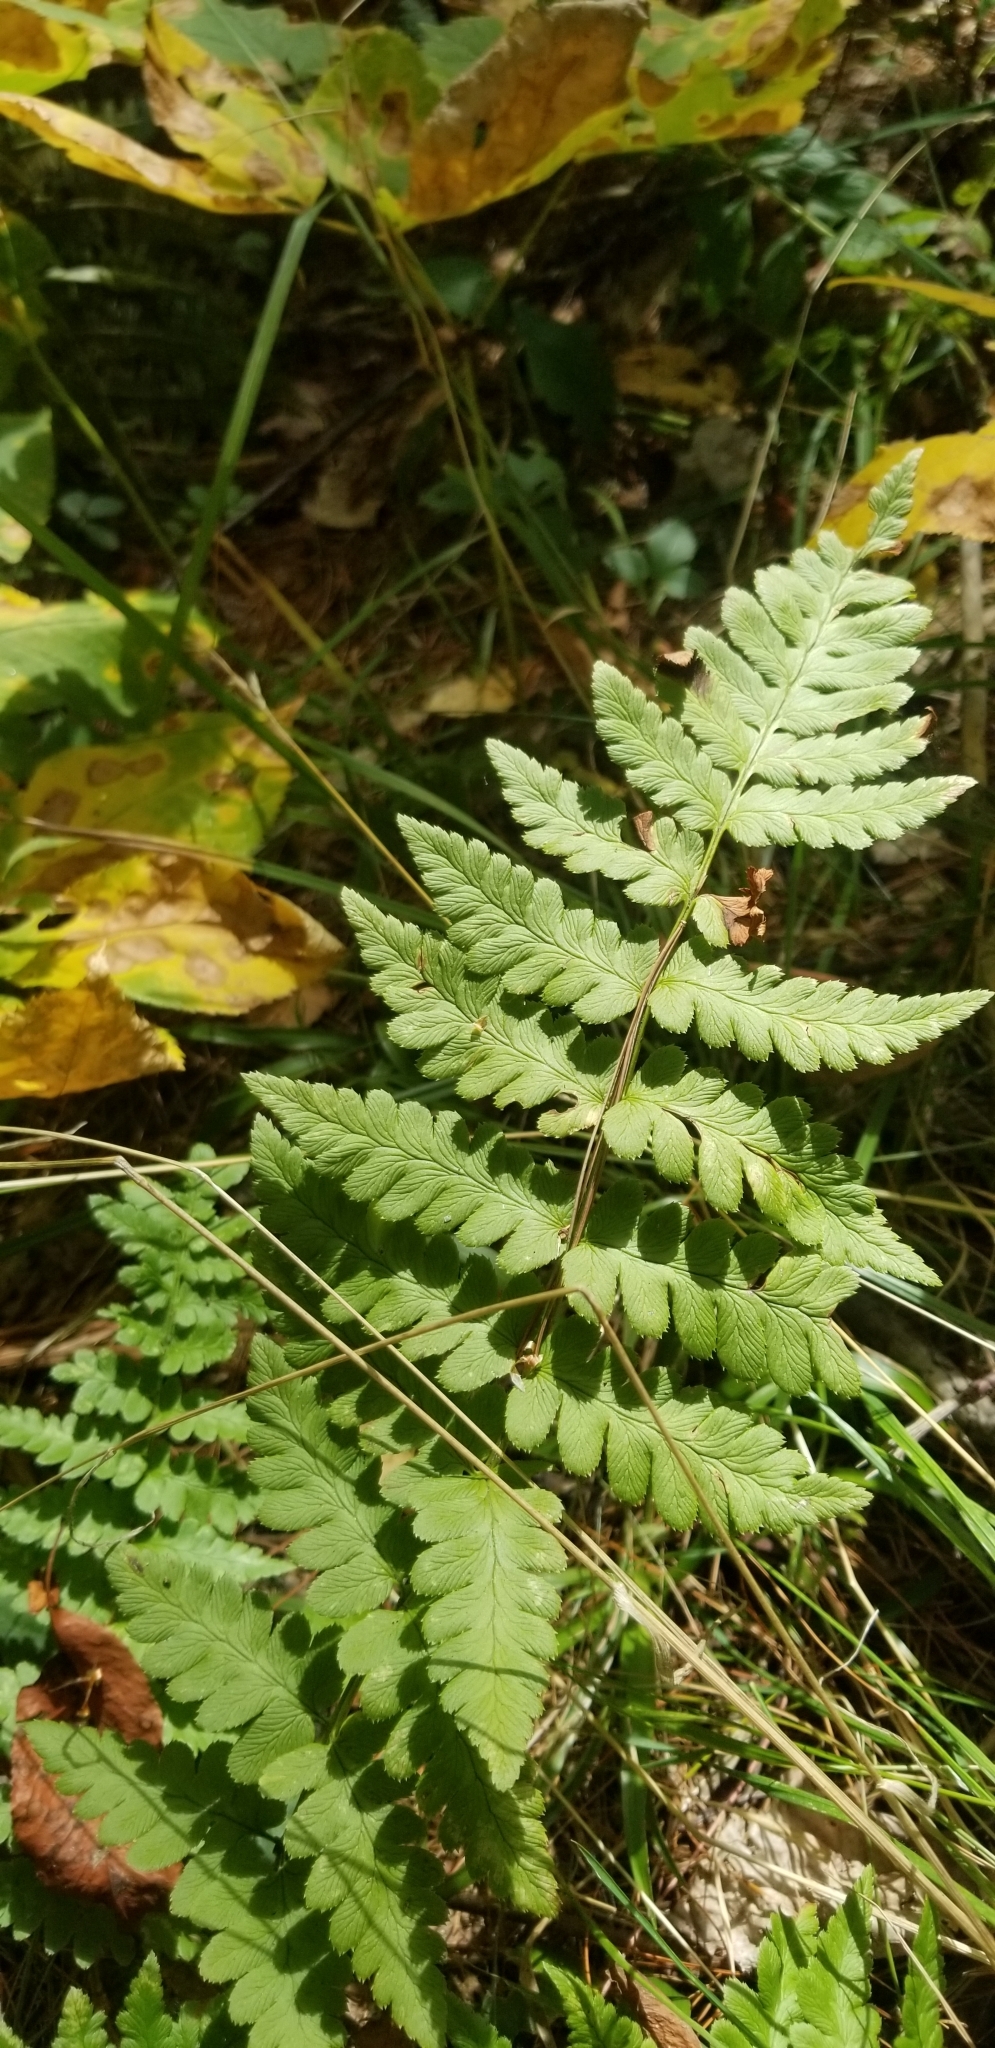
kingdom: Plantae
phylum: Tracheophyta
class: Polypodiopsida
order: Polypodiales
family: Dryopteridaceae
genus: Dryopteris
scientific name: Dryopteris cristata
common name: Crested wood fern
